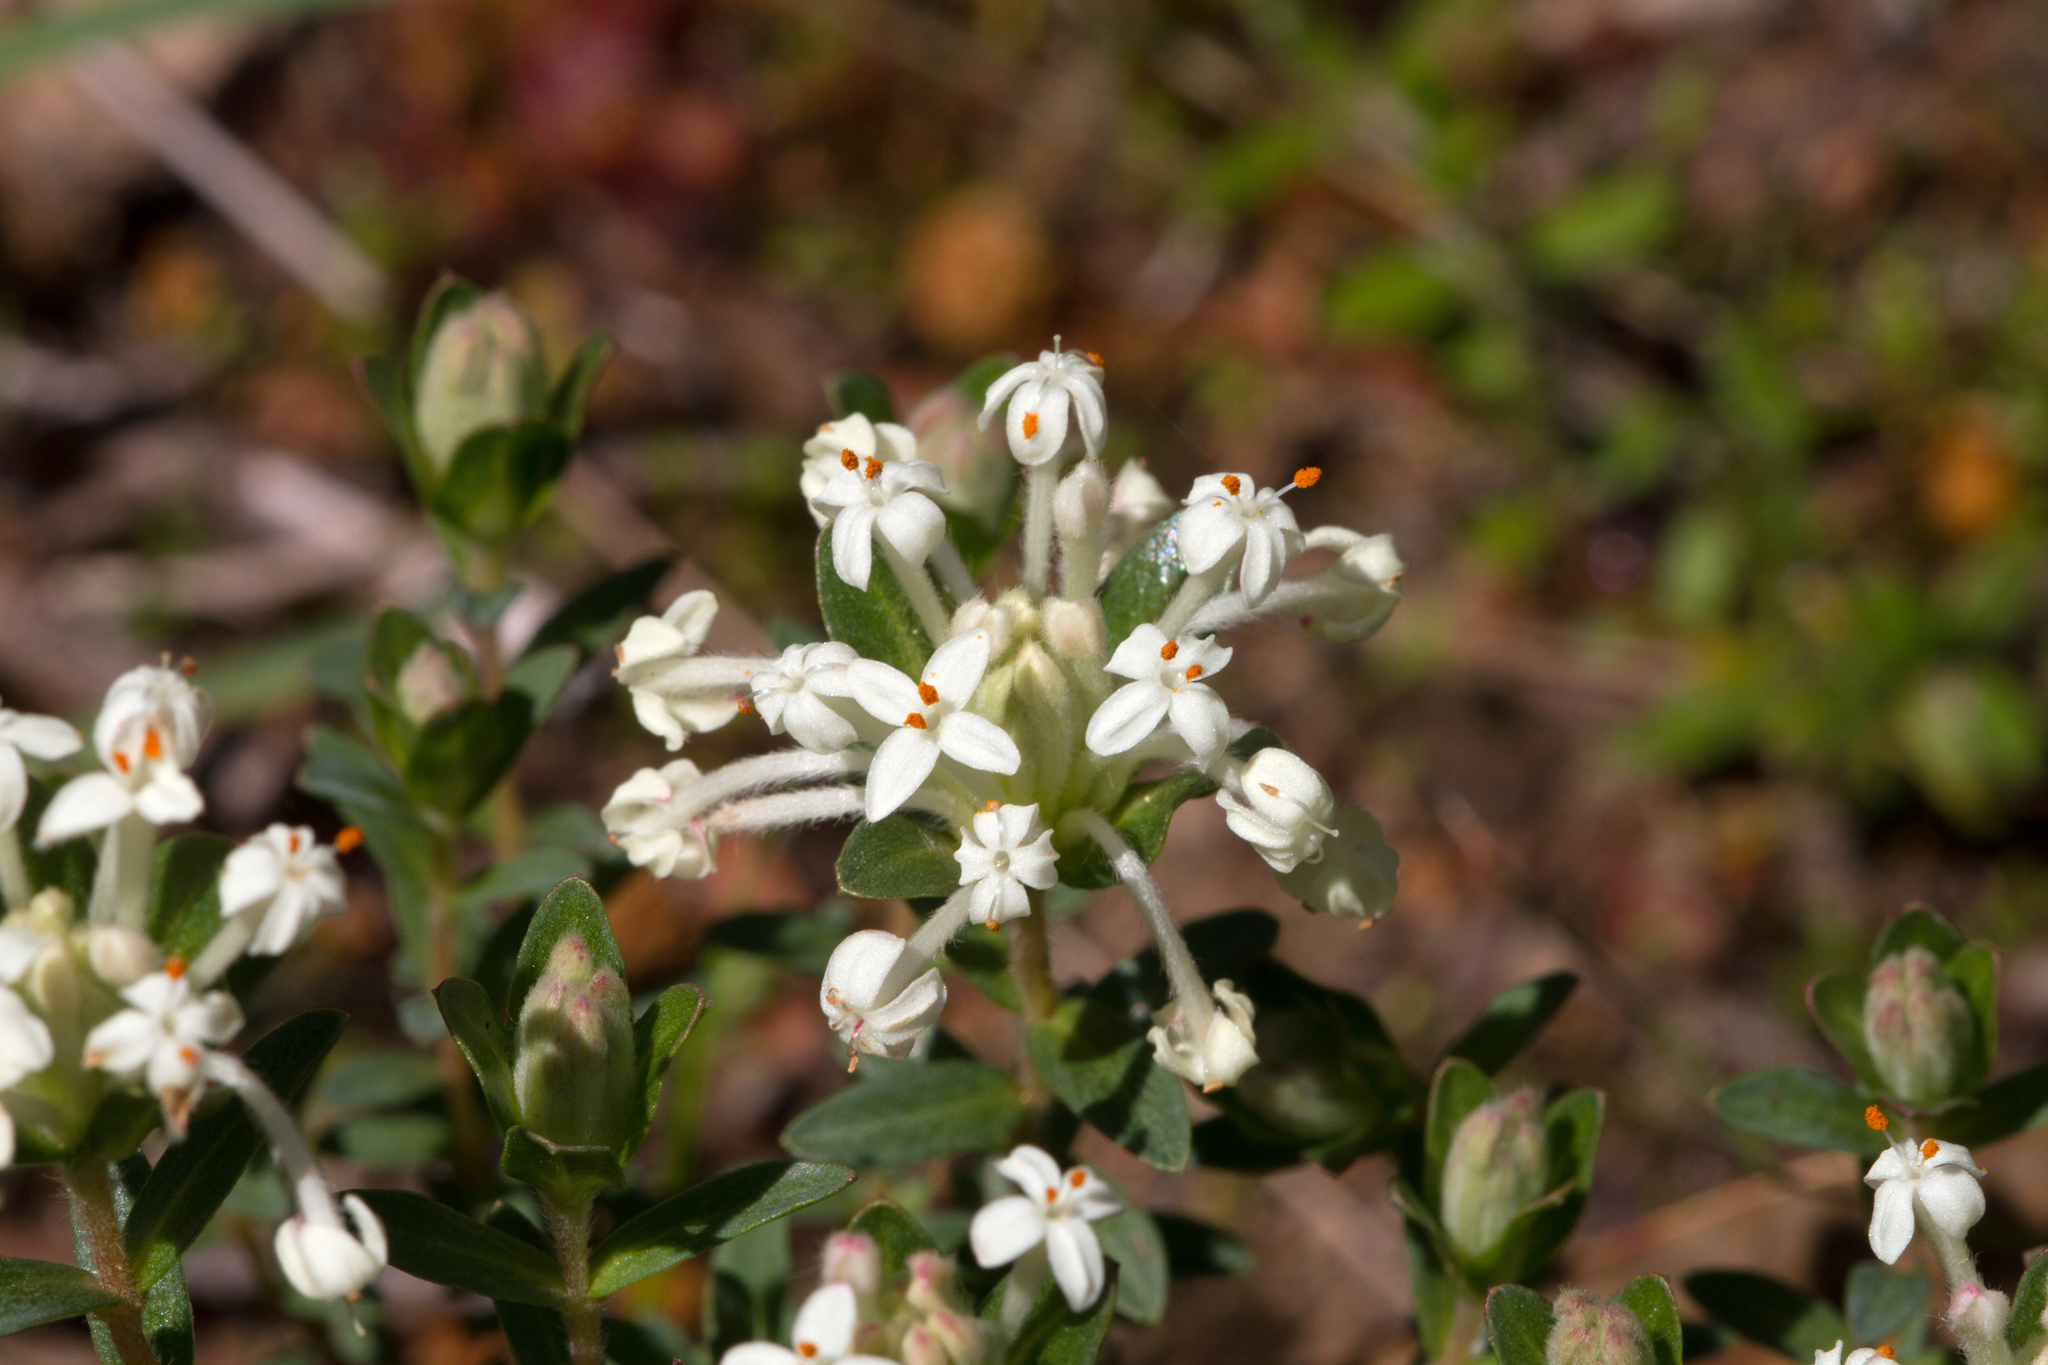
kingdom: Plantae
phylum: Tracheophyta
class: Magnoliopsida
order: Malvales
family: Thymelaeaceae
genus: Pimelea
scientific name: Pimelea humilis
